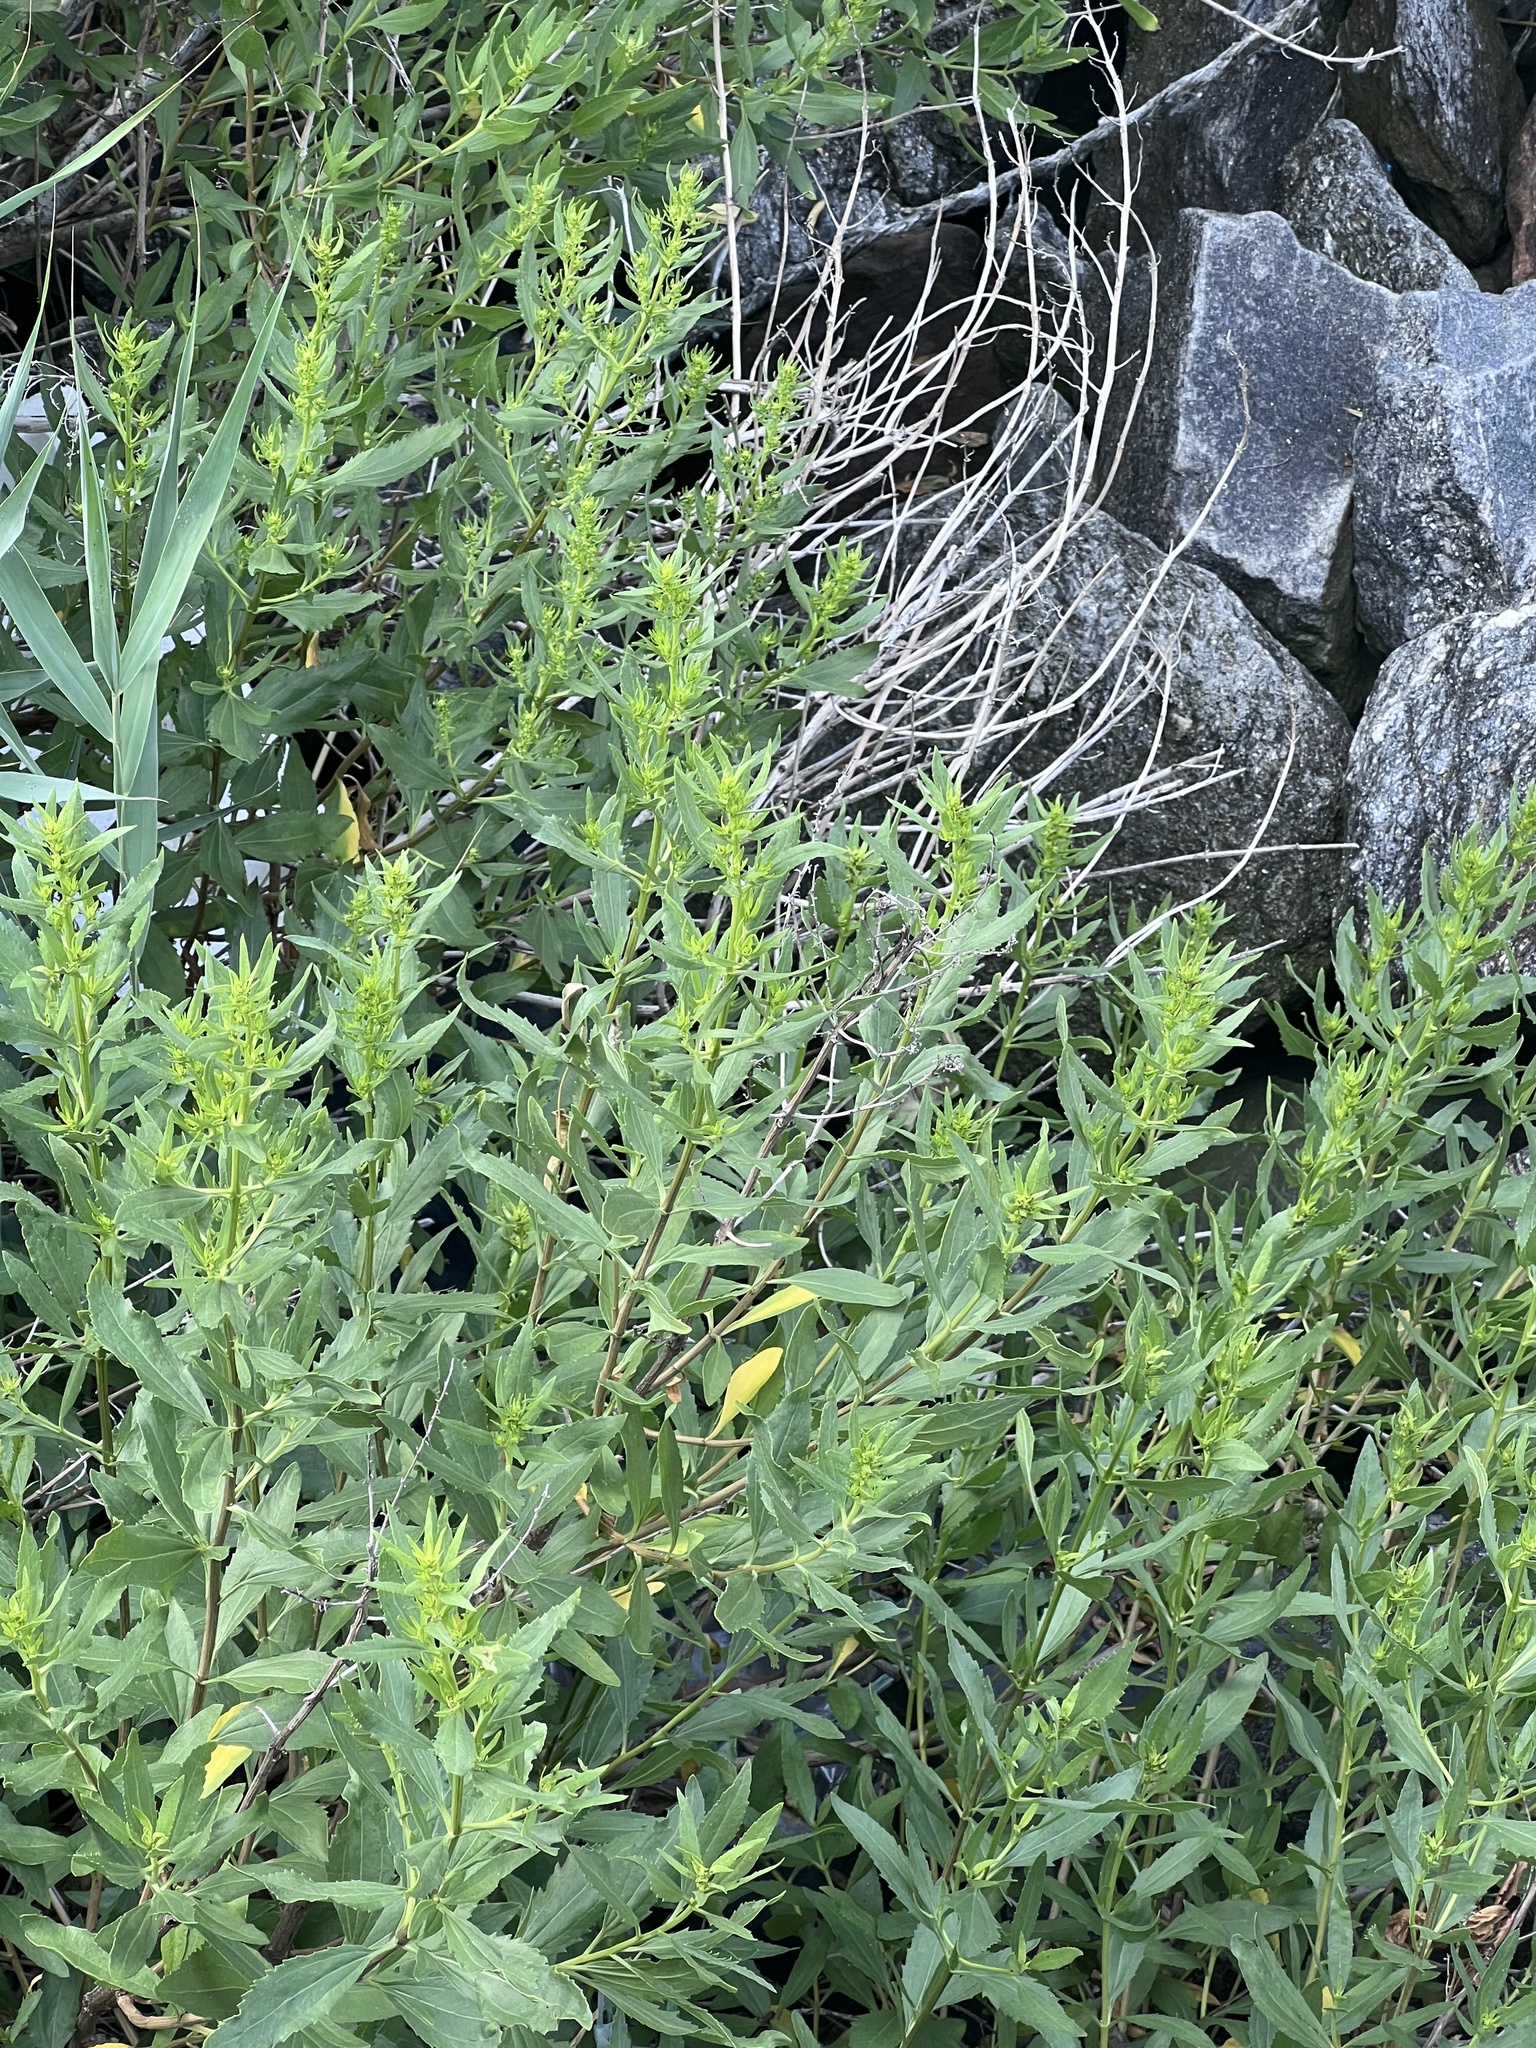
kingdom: Plantae
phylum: Tracheophyta
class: Magnoliopsida
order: Asterales
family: Asteraceae
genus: Iva
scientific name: Iva frutescens
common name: Big-leaved marsh-elder
